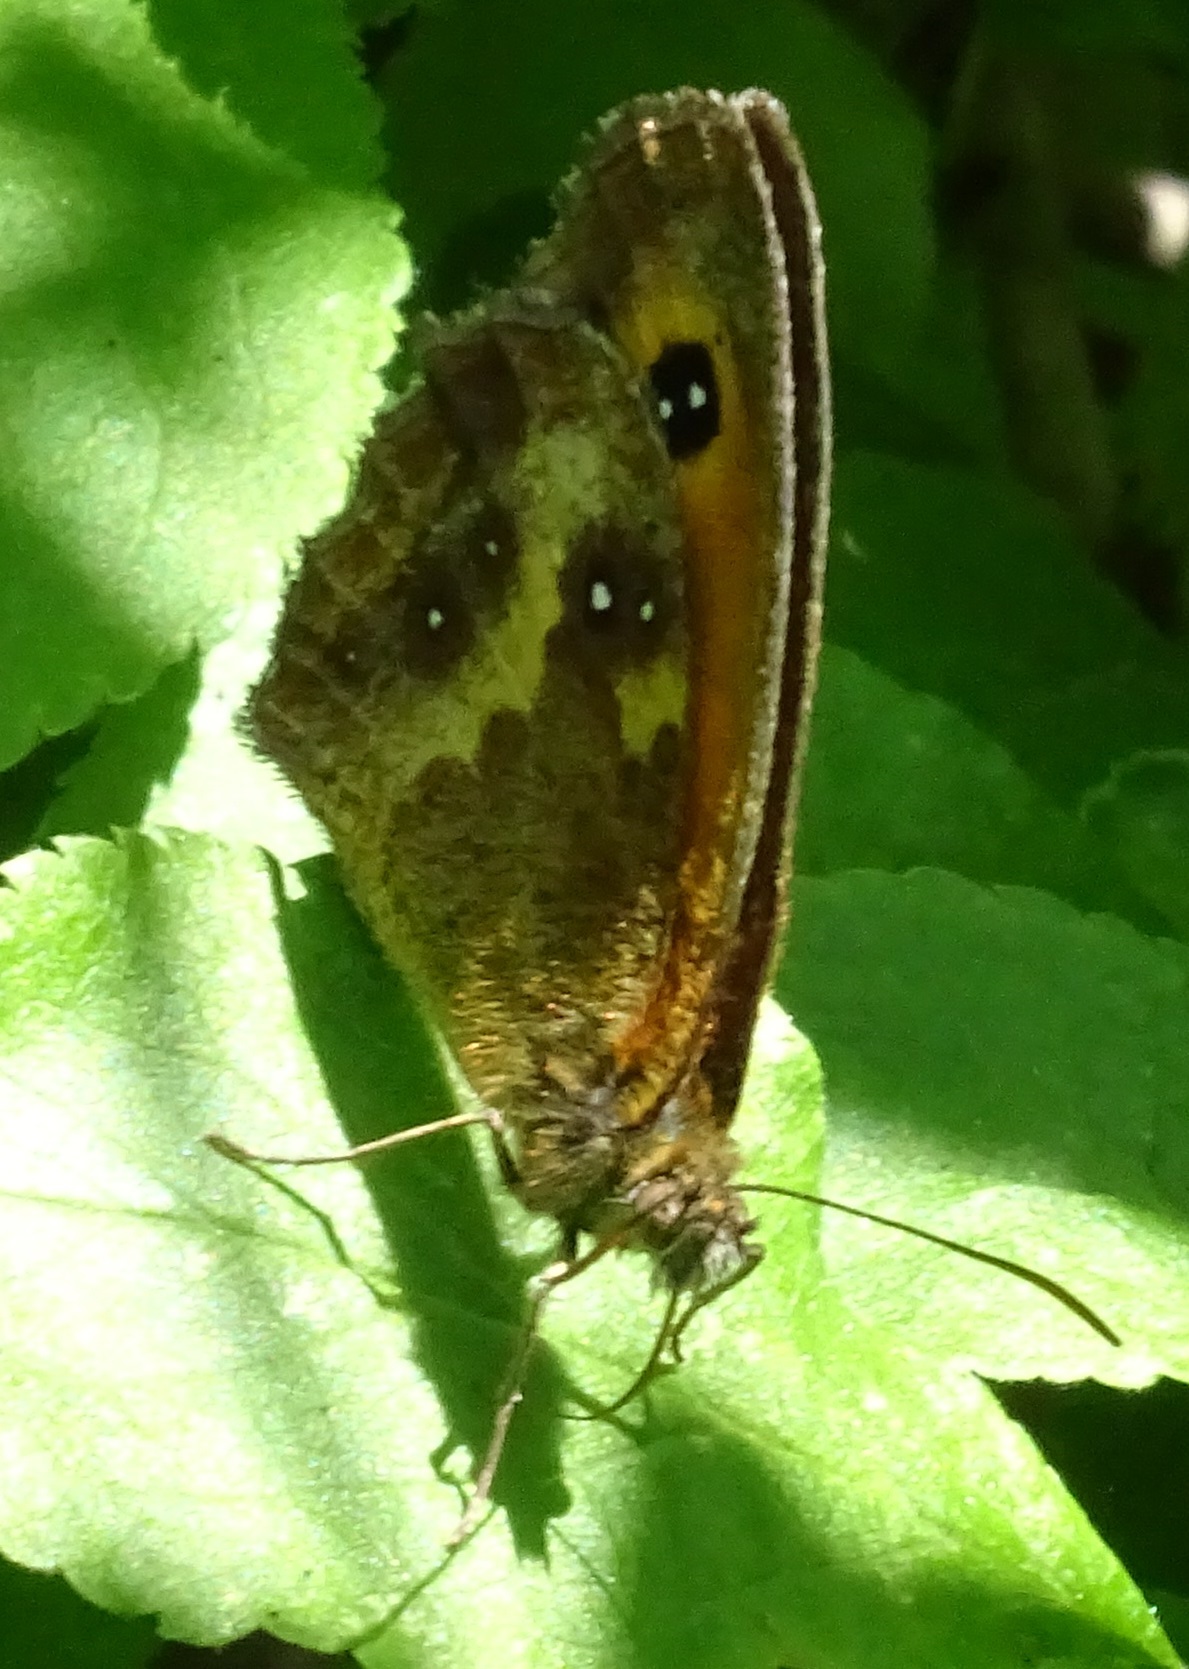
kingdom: Animalia
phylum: Arthropoda
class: Insecta
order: Lepidoptera
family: Nymphalidae
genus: Pyronia
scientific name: Pyronia tithonus
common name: Gatekeeper
